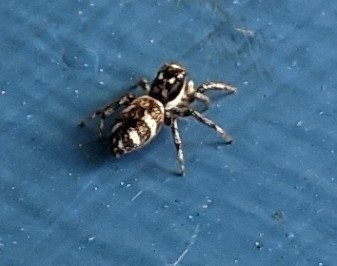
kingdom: Animalia
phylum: Arthropoda
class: Arachnida
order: Araneae
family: Salticidae
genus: Salticus
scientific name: Salticus scenicus
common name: Zebra jumper
